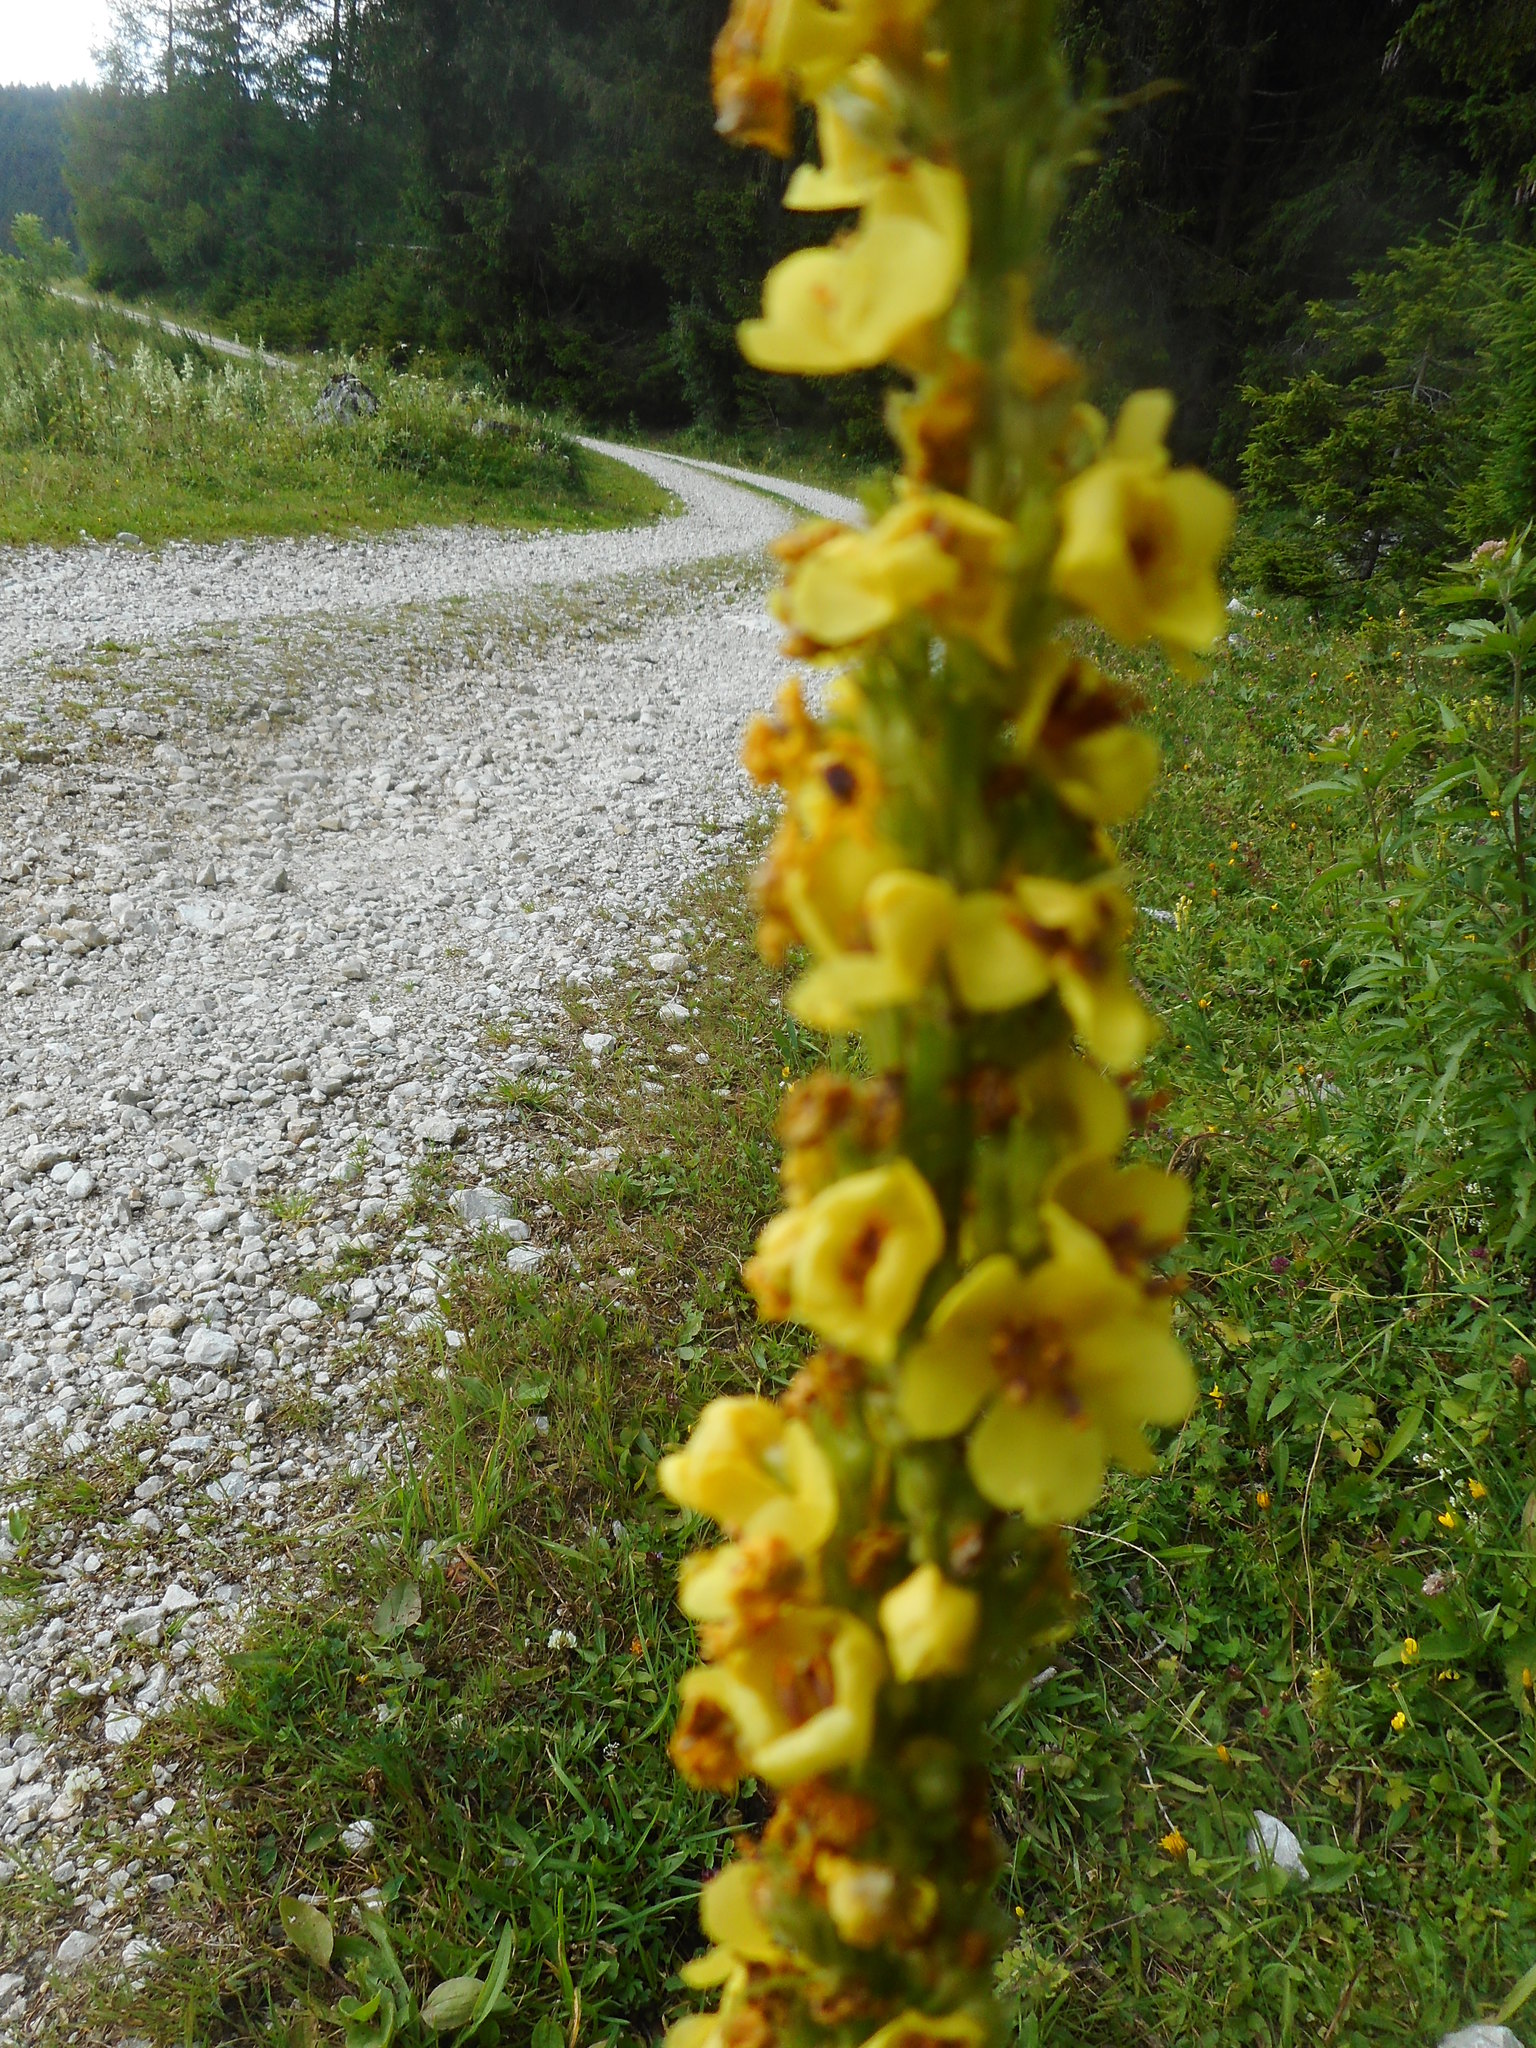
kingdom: Plantae
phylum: Tracheophyta
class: Magnoliopsida
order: Lamiales
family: Scrophulariaceae
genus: Verbascum
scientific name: Verbascum nigrum
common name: Dark mullein
